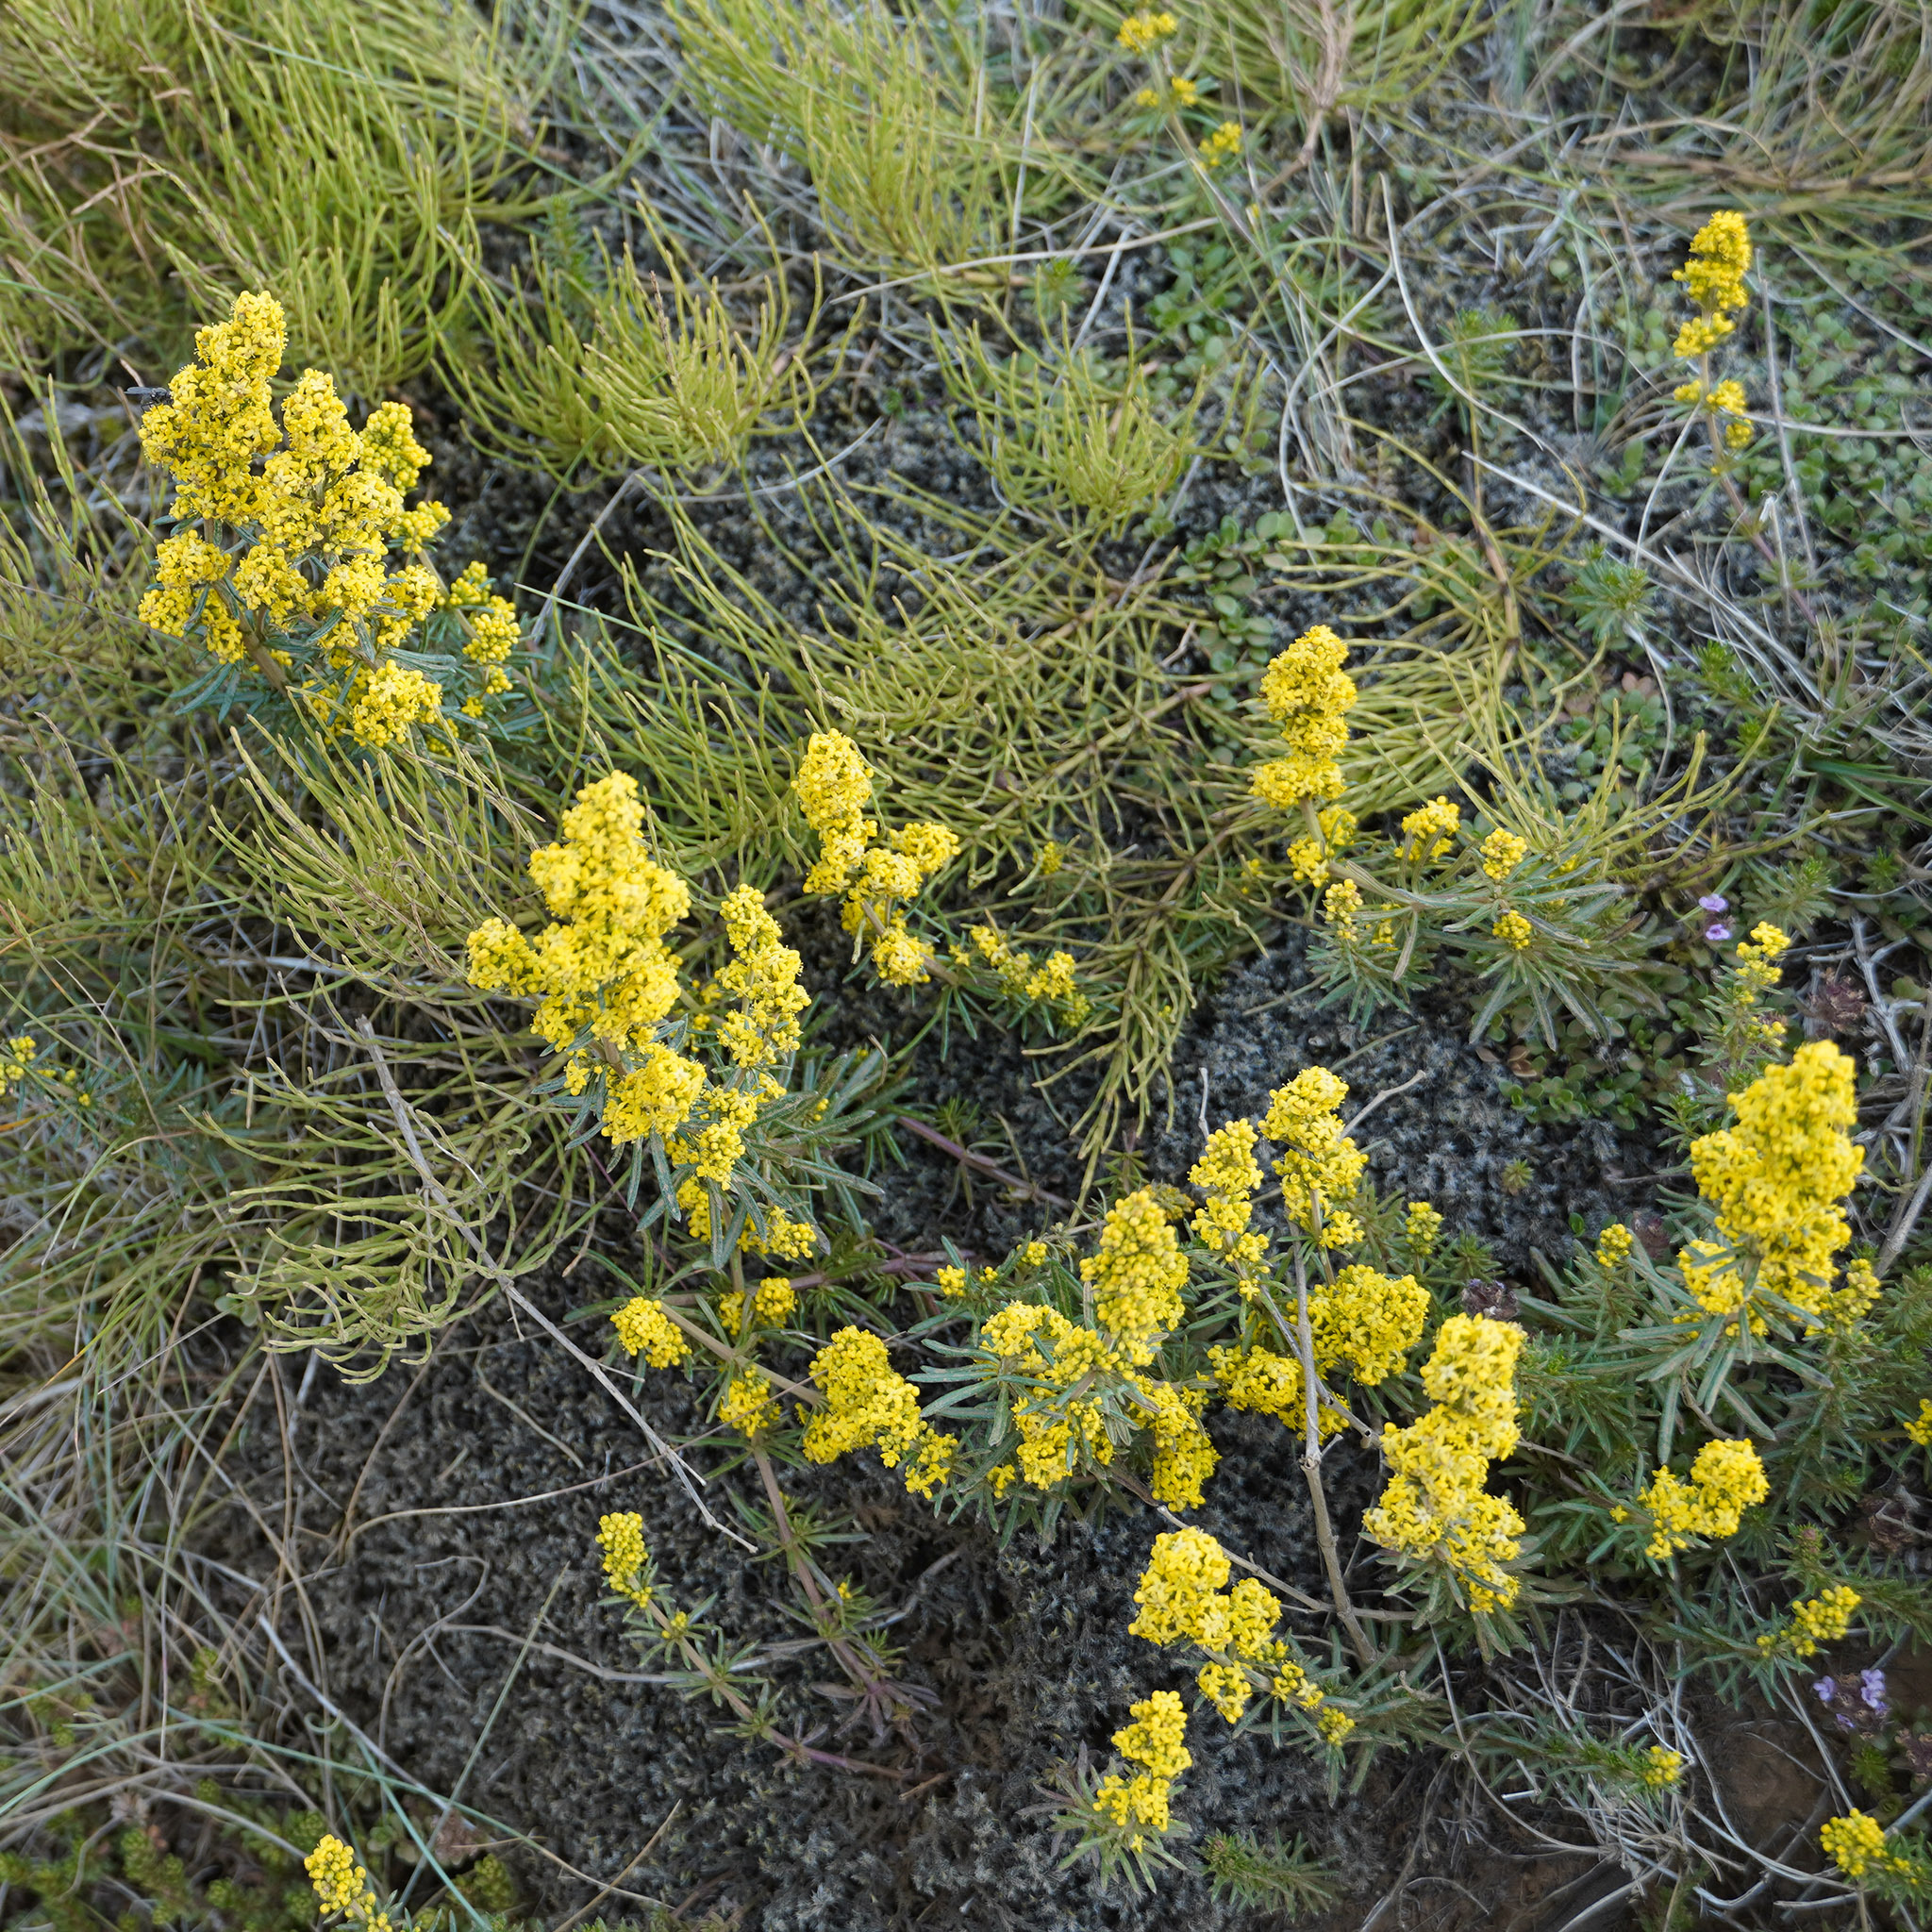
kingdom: Plantae
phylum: Tracheophyta
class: Magnoliopsida
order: Gentianales
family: Rubiaceae
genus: Galium
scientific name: Galium verum
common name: Lady's bedstraw
